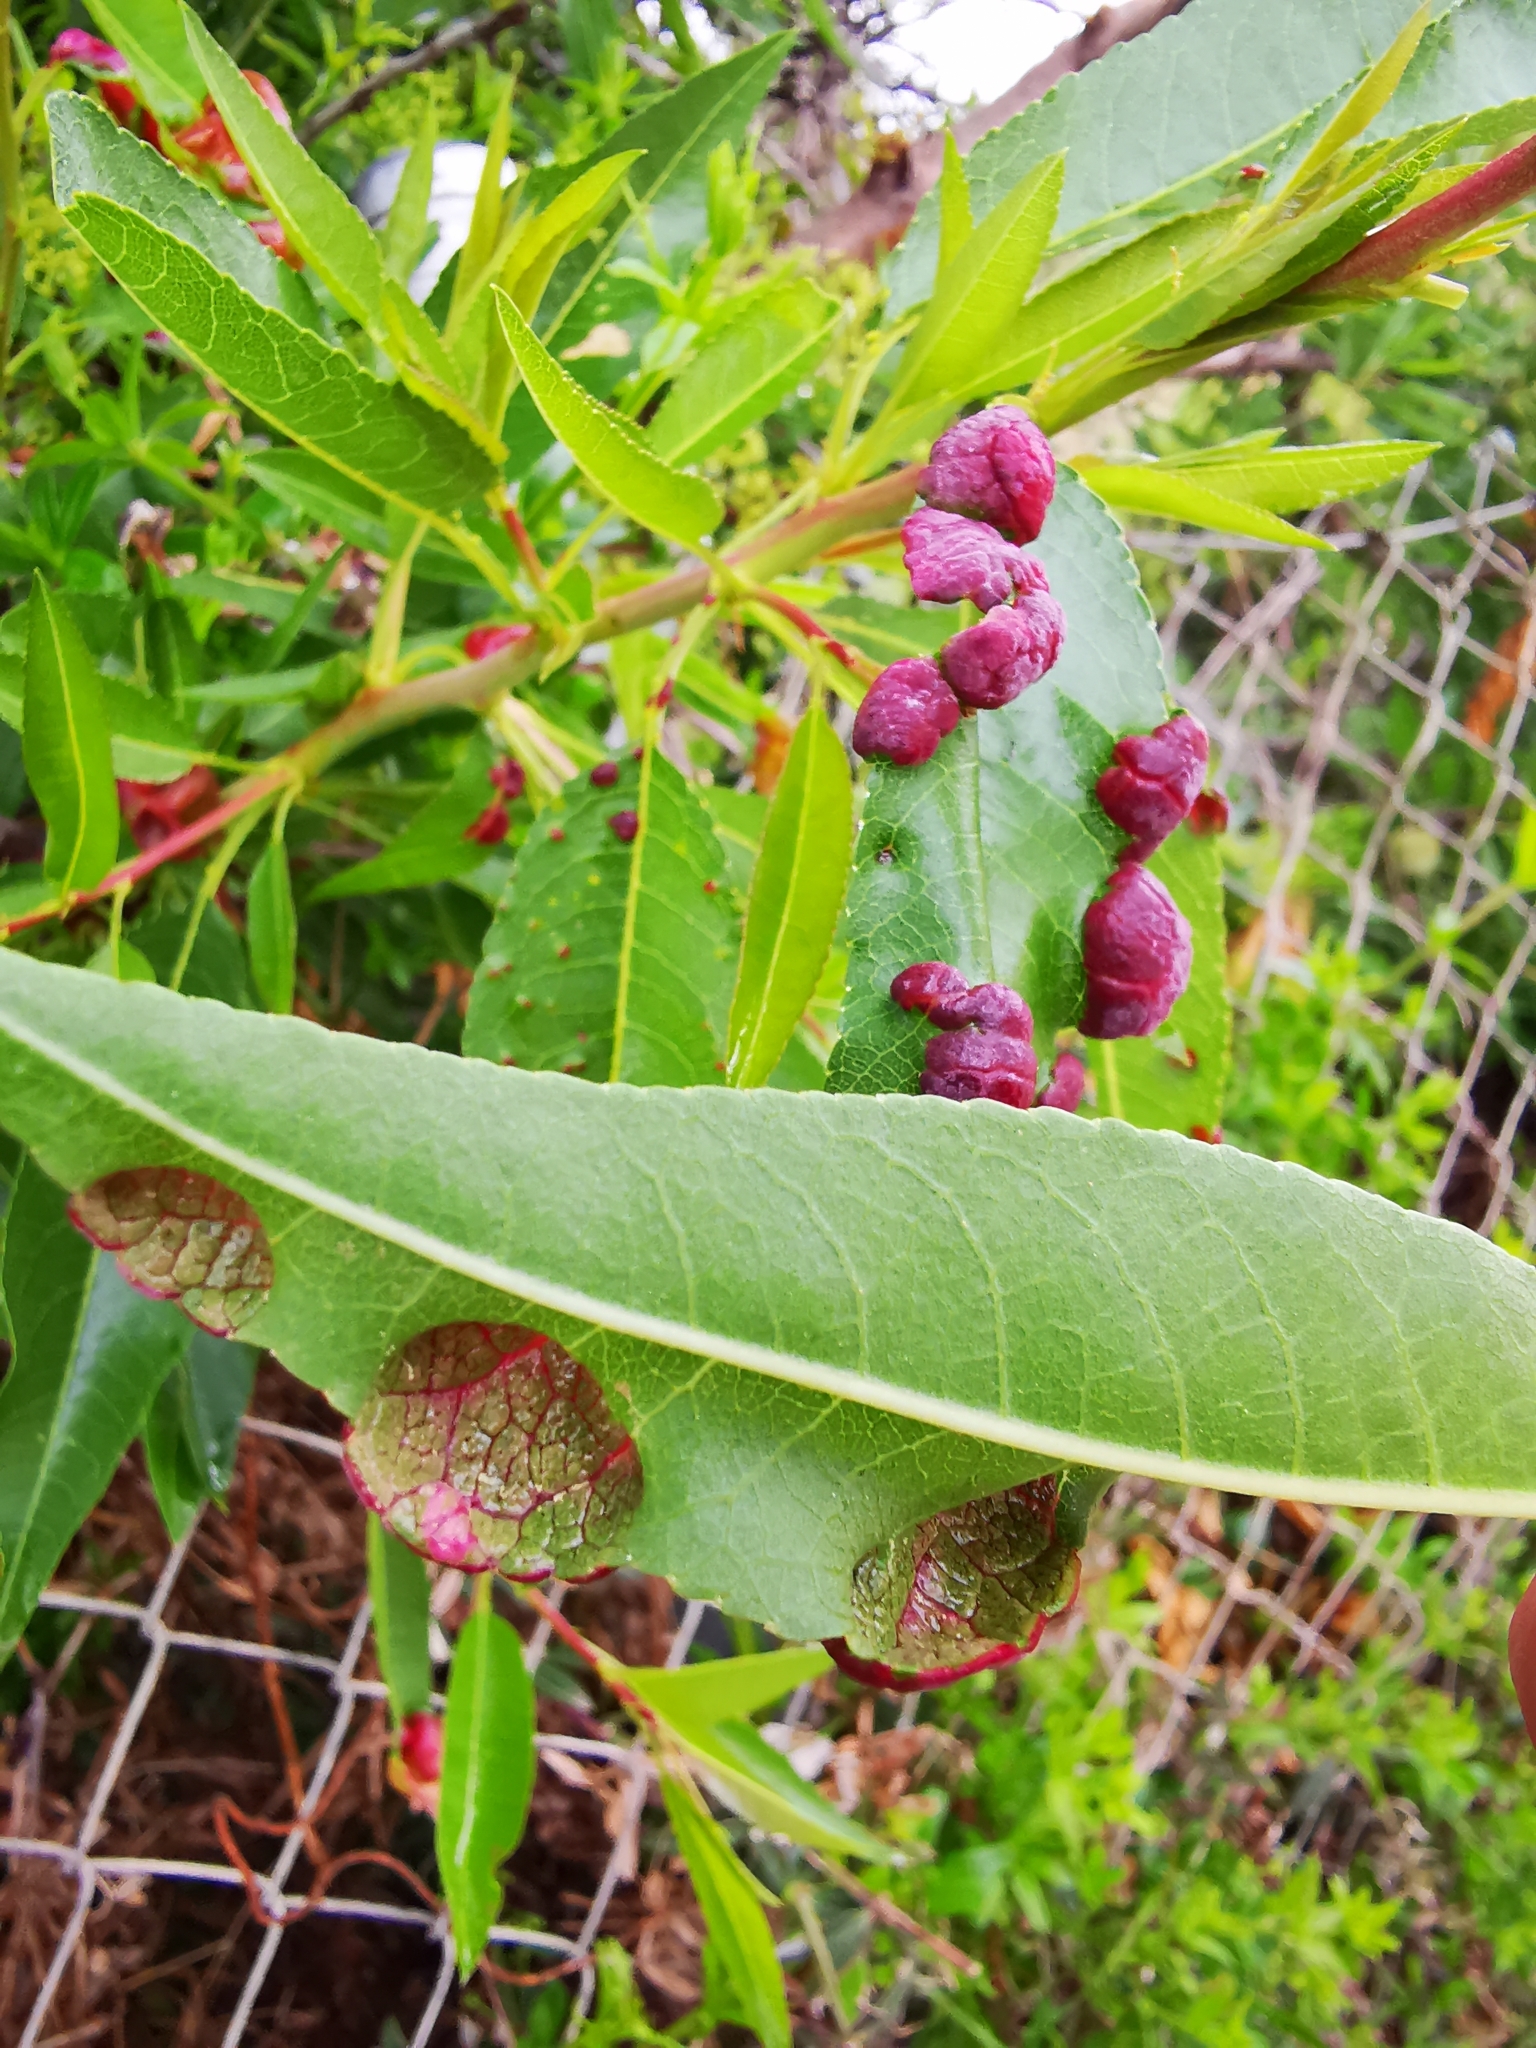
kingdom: Fungi
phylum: Ascomycota
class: Taphrinomycetes
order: Taphrinales
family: Taphrinaceae
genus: Taphrina
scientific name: Taphrina deformans
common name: Peach leaf curl
